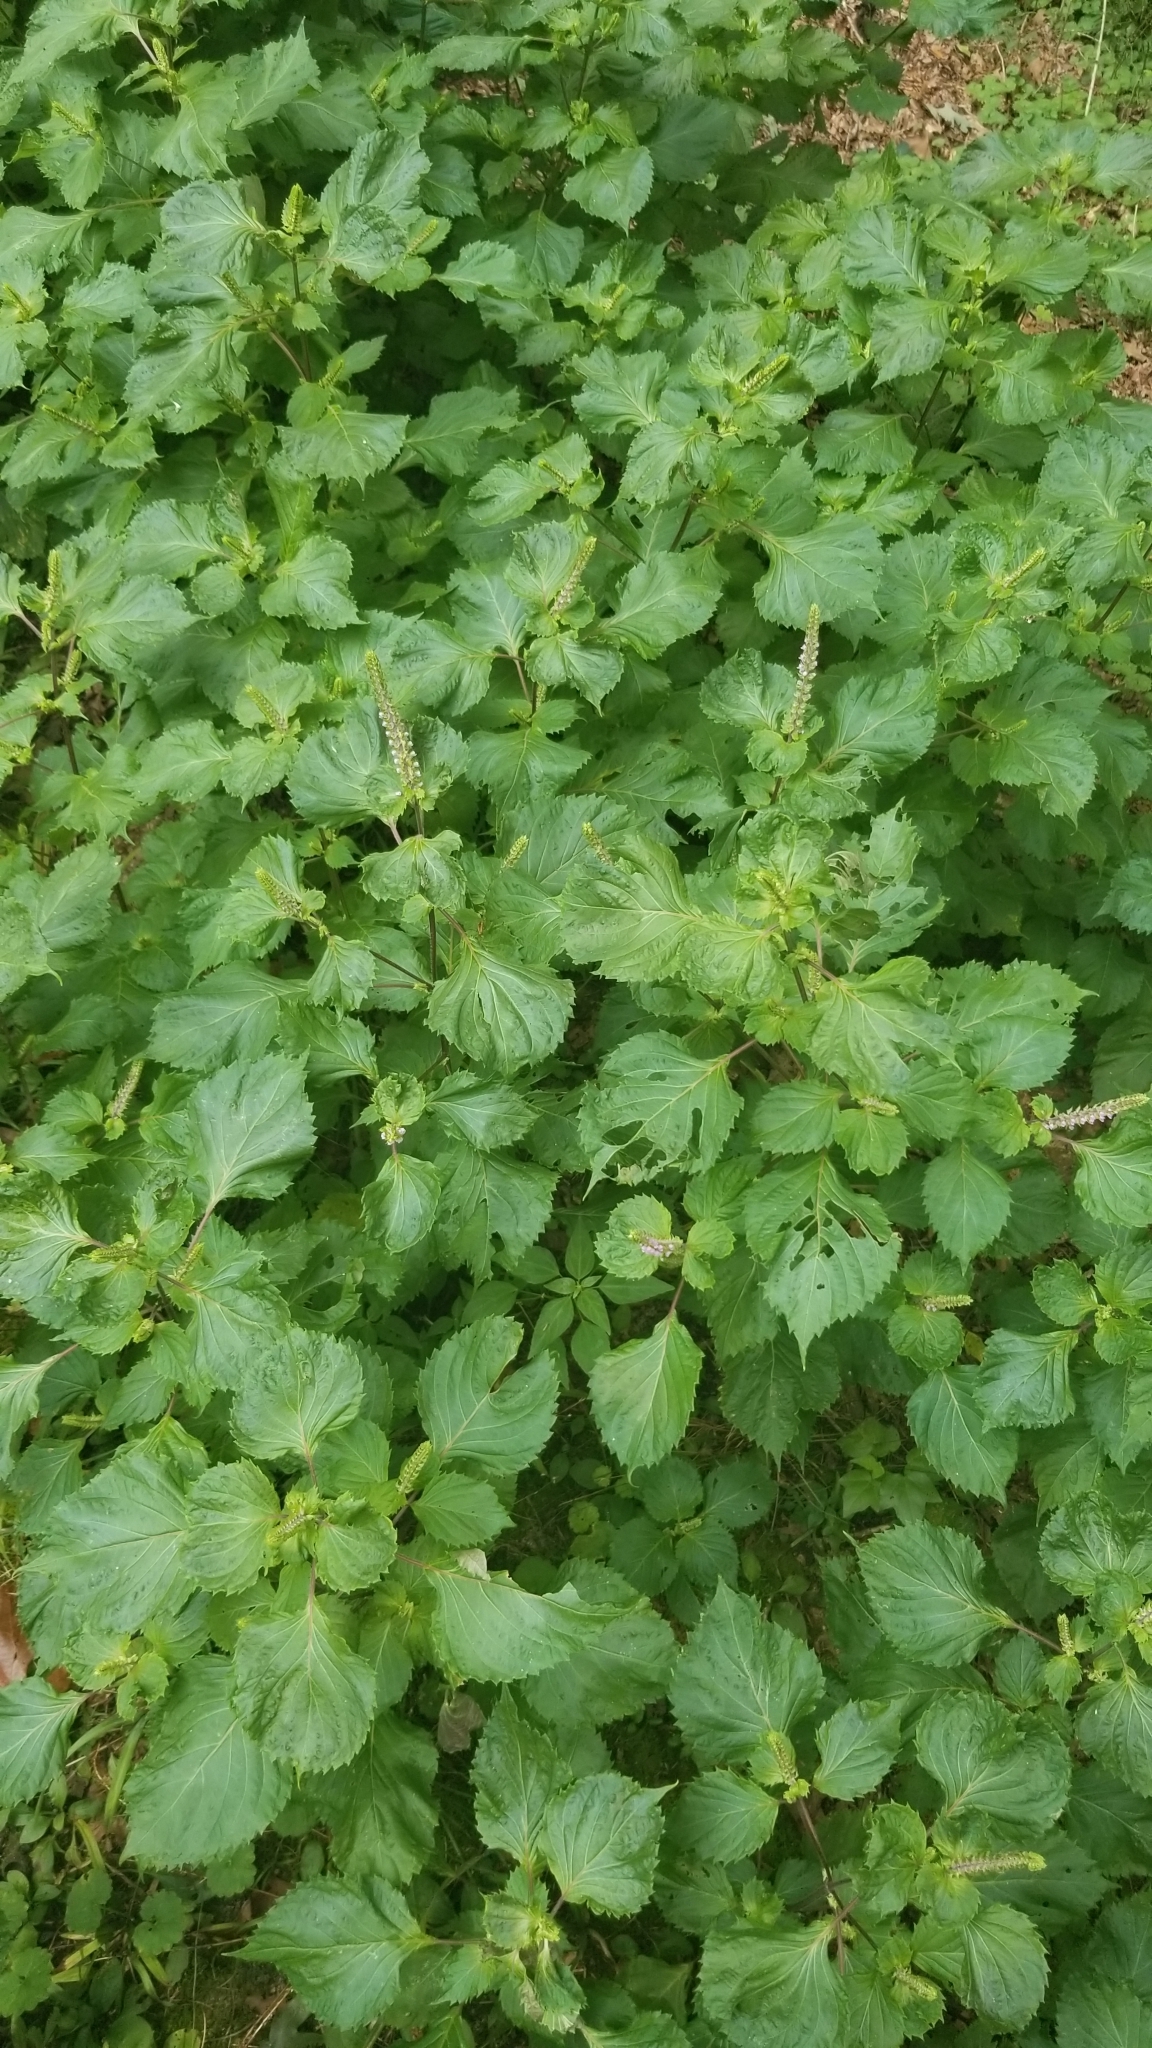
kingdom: Plantae
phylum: Tracheophyta
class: Magnoliopsida
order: Lamiales
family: Lamiaceae
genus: Perilla
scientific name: Perilla frutescens
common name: Perilla
